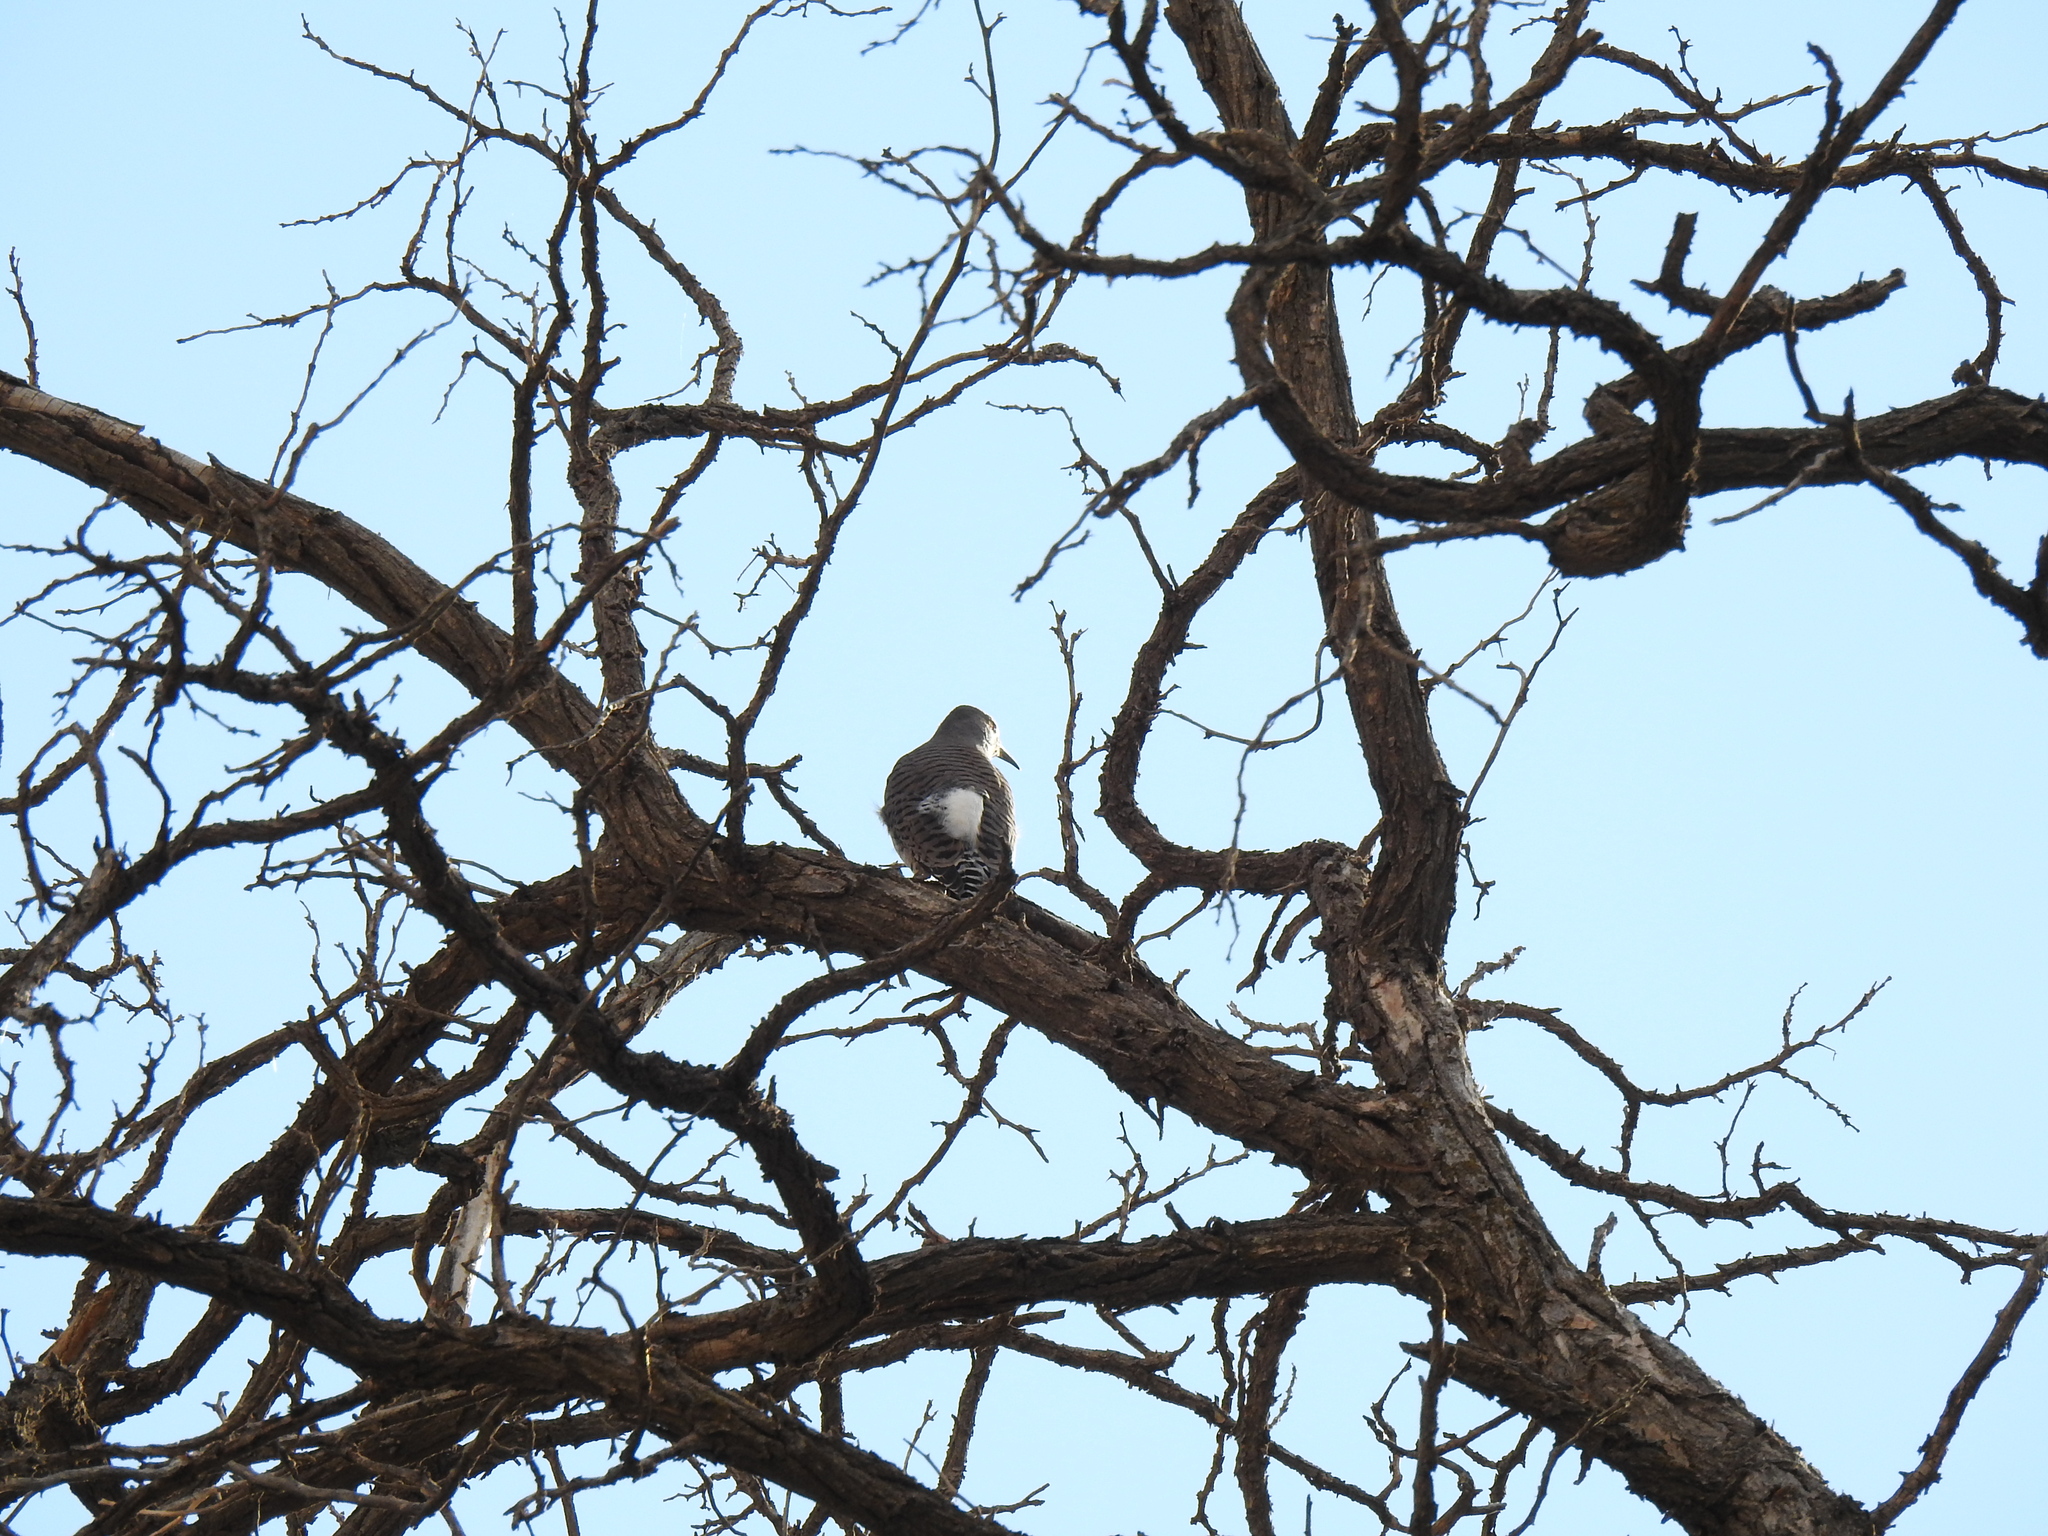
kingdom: Animalia
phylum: Chordata
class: Aves
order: Piciformes
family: Picidae
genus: Colaptes
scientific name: Colaptes auratus
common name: Northern flicker
